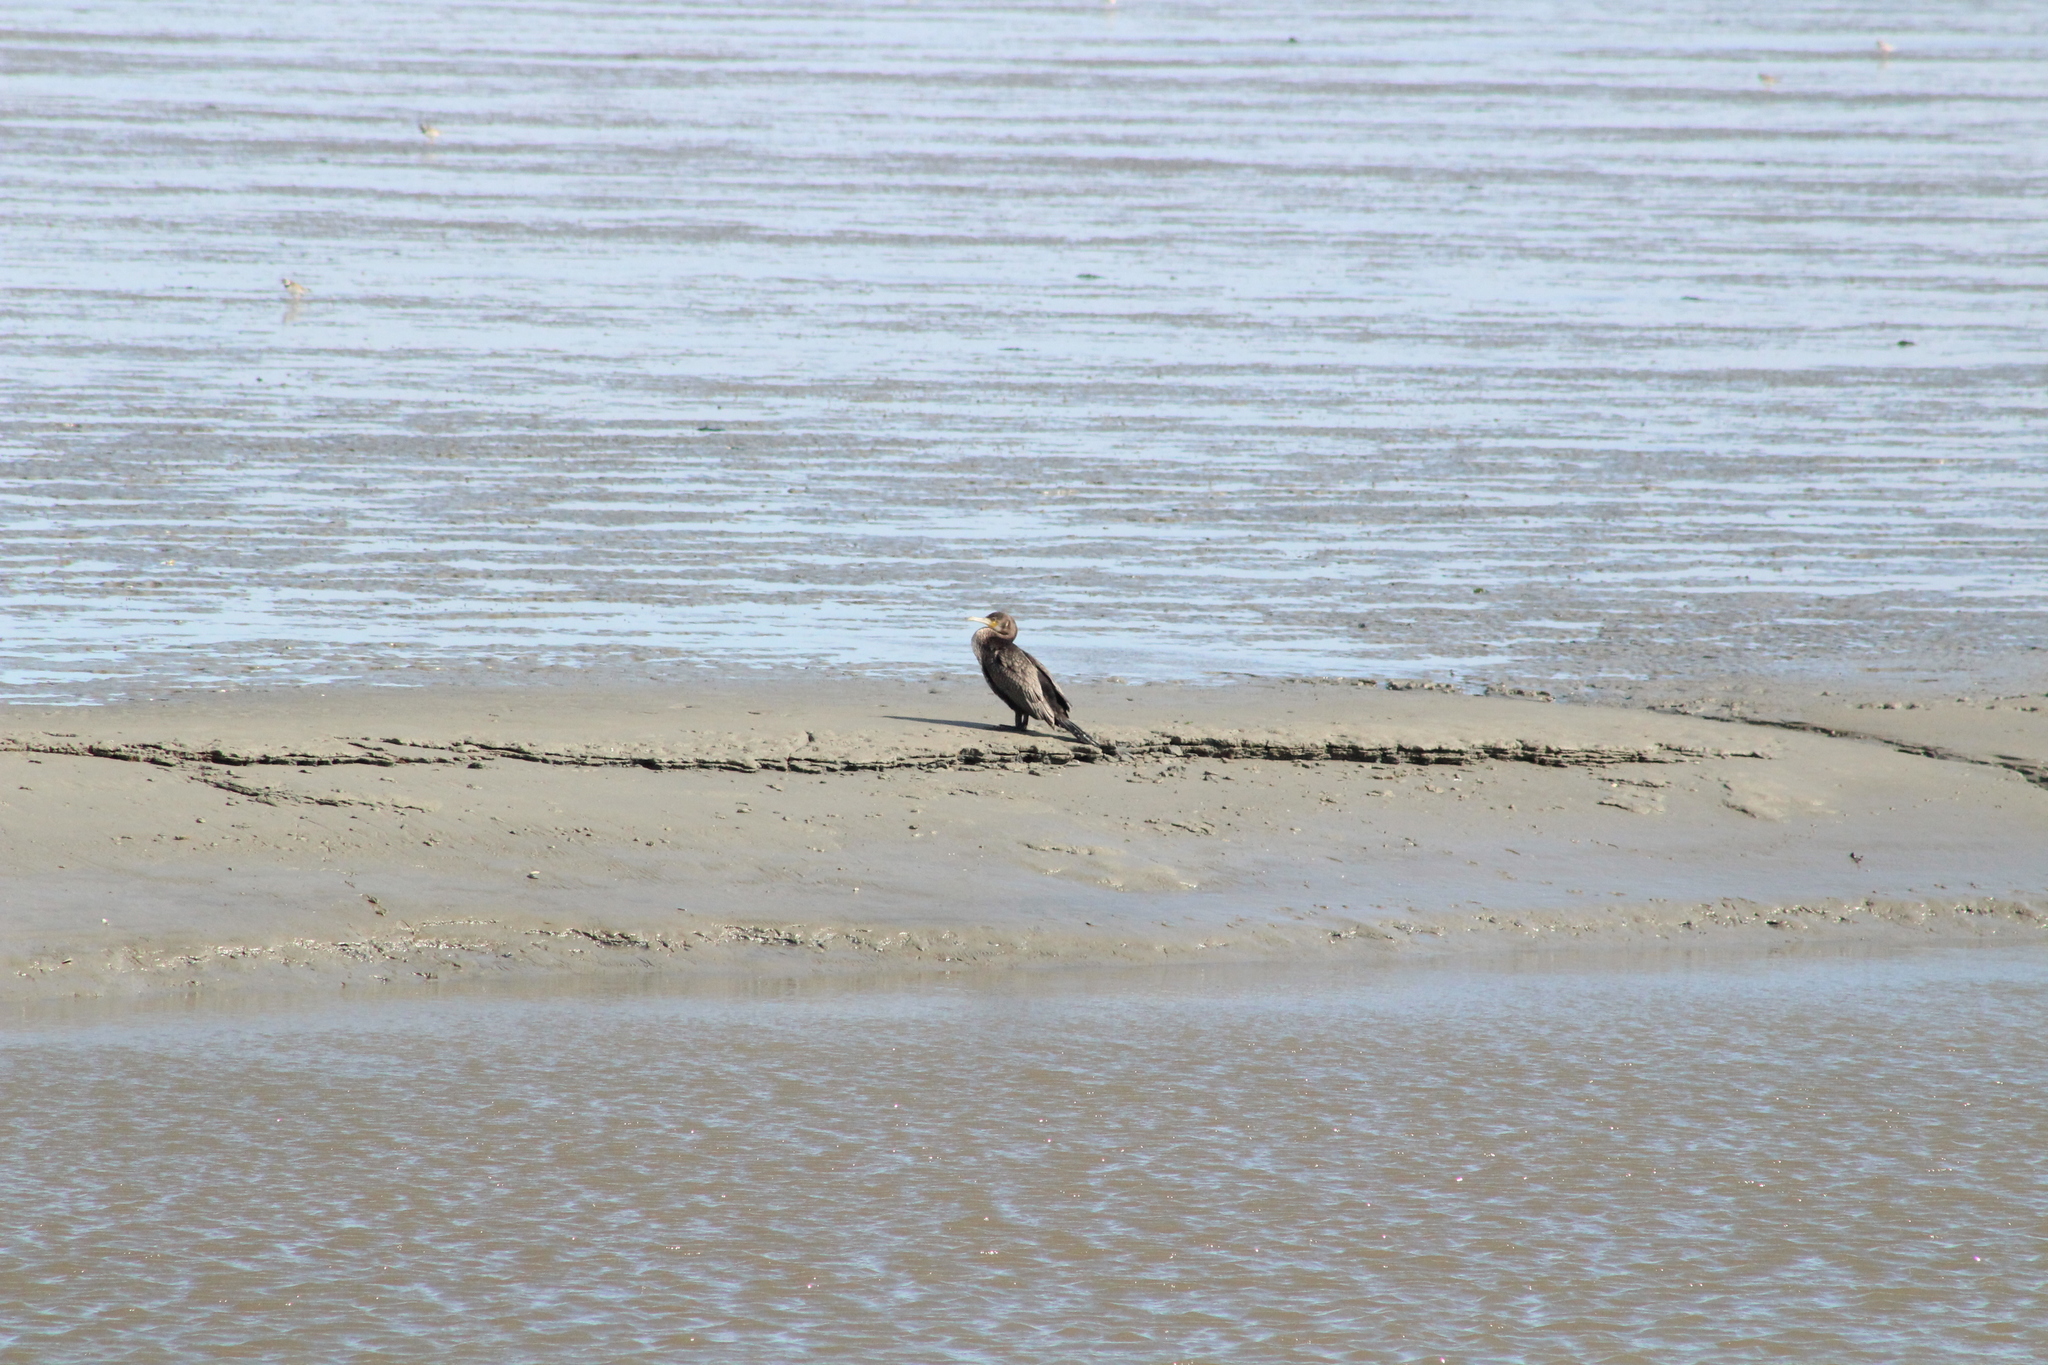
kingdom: Animalia
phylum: Chordata
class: Aves
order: Suliformes
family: Phalacrocoracidae
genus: Phalacrocorax
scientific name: Phalacrocorax carbo
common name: Great cormorant
